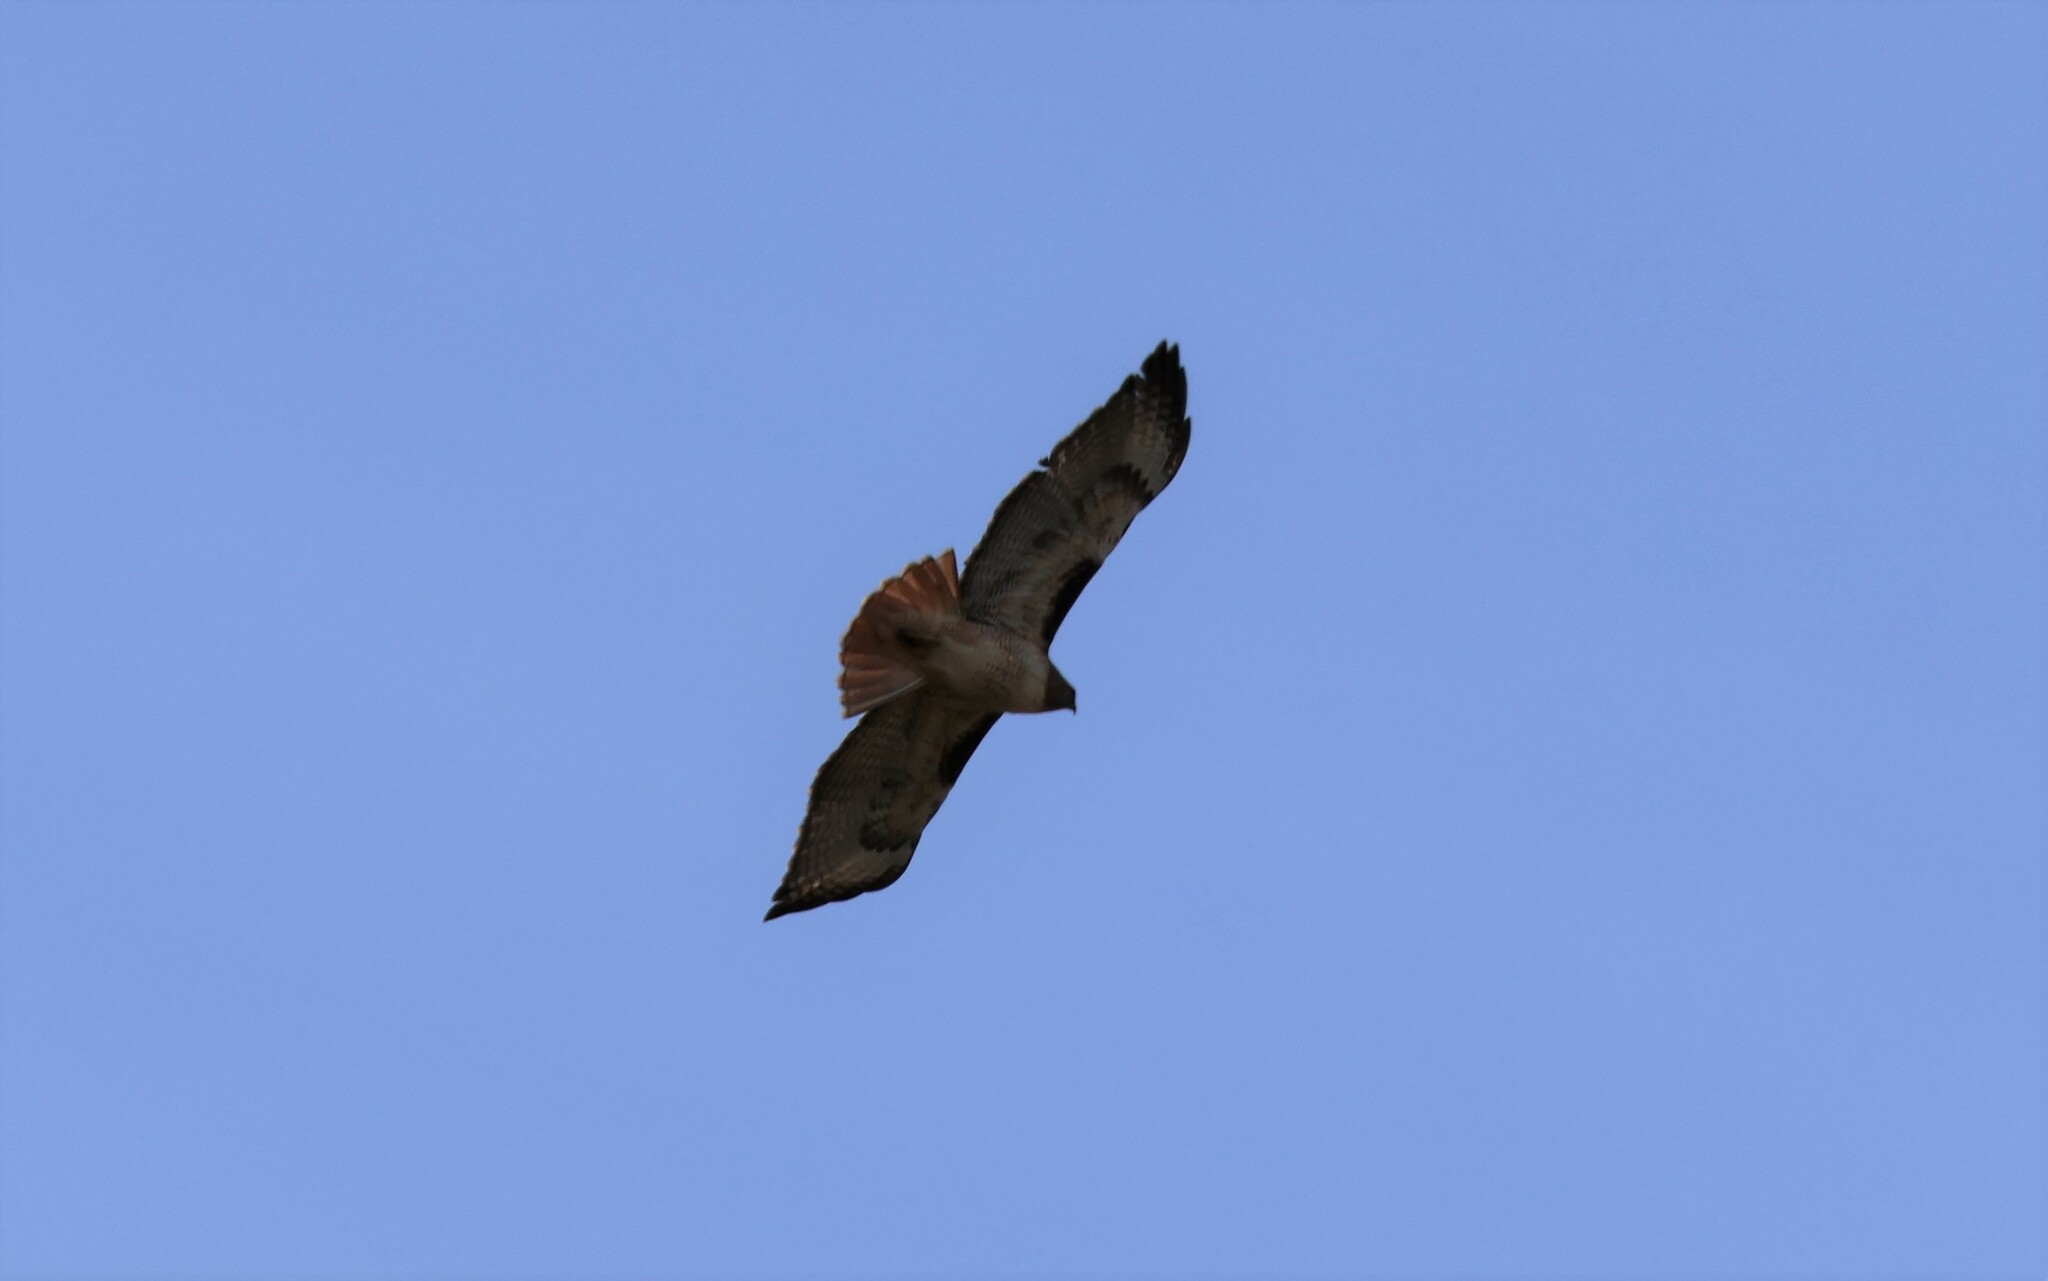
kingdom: Animalia
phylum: Chordata
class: Aves
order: Accipitriformes
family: Accipitridae
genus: Buteo
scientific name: Buteo jamaicensis
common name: Red-tailed hawk
